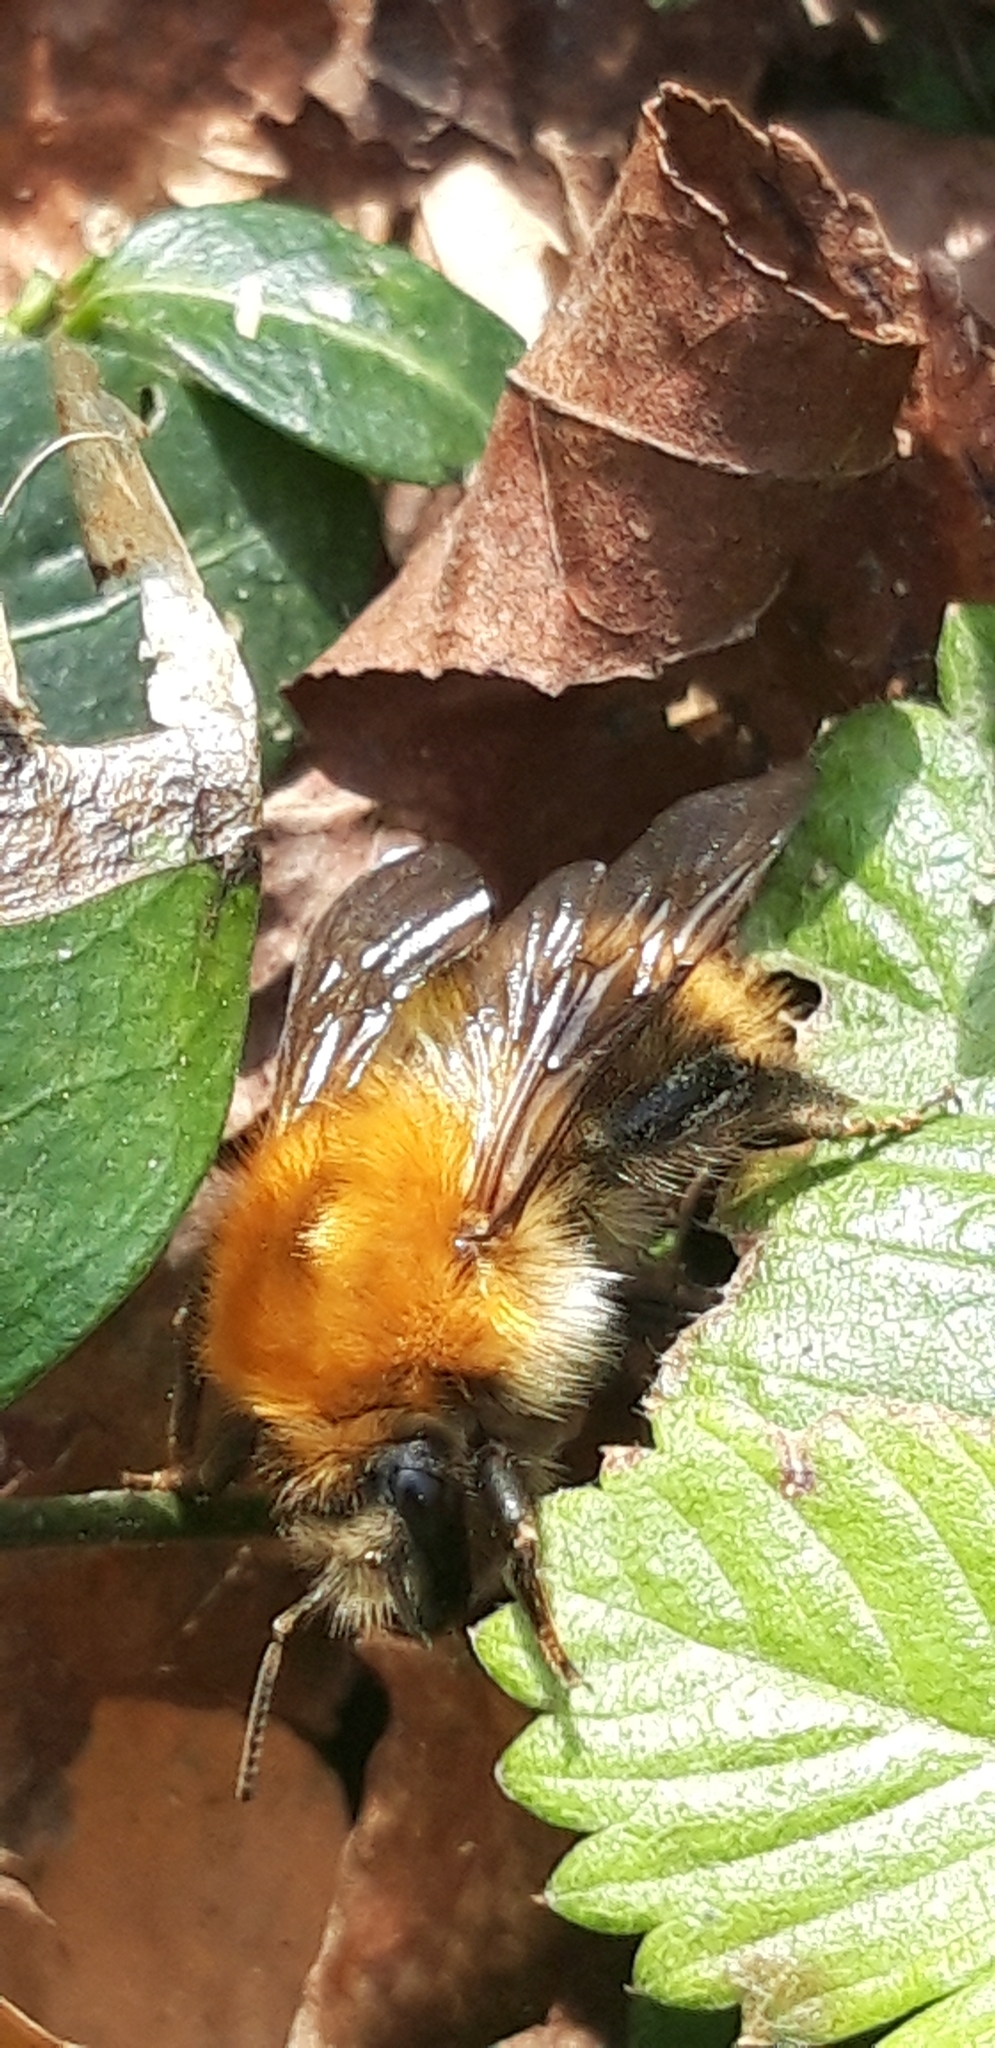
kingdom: Animalia
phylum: Arthropoda
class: Insecta
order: Hymenoptera
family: Apidae
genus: Bombus
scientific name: Bombus pascuorum
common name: Common carder bee
